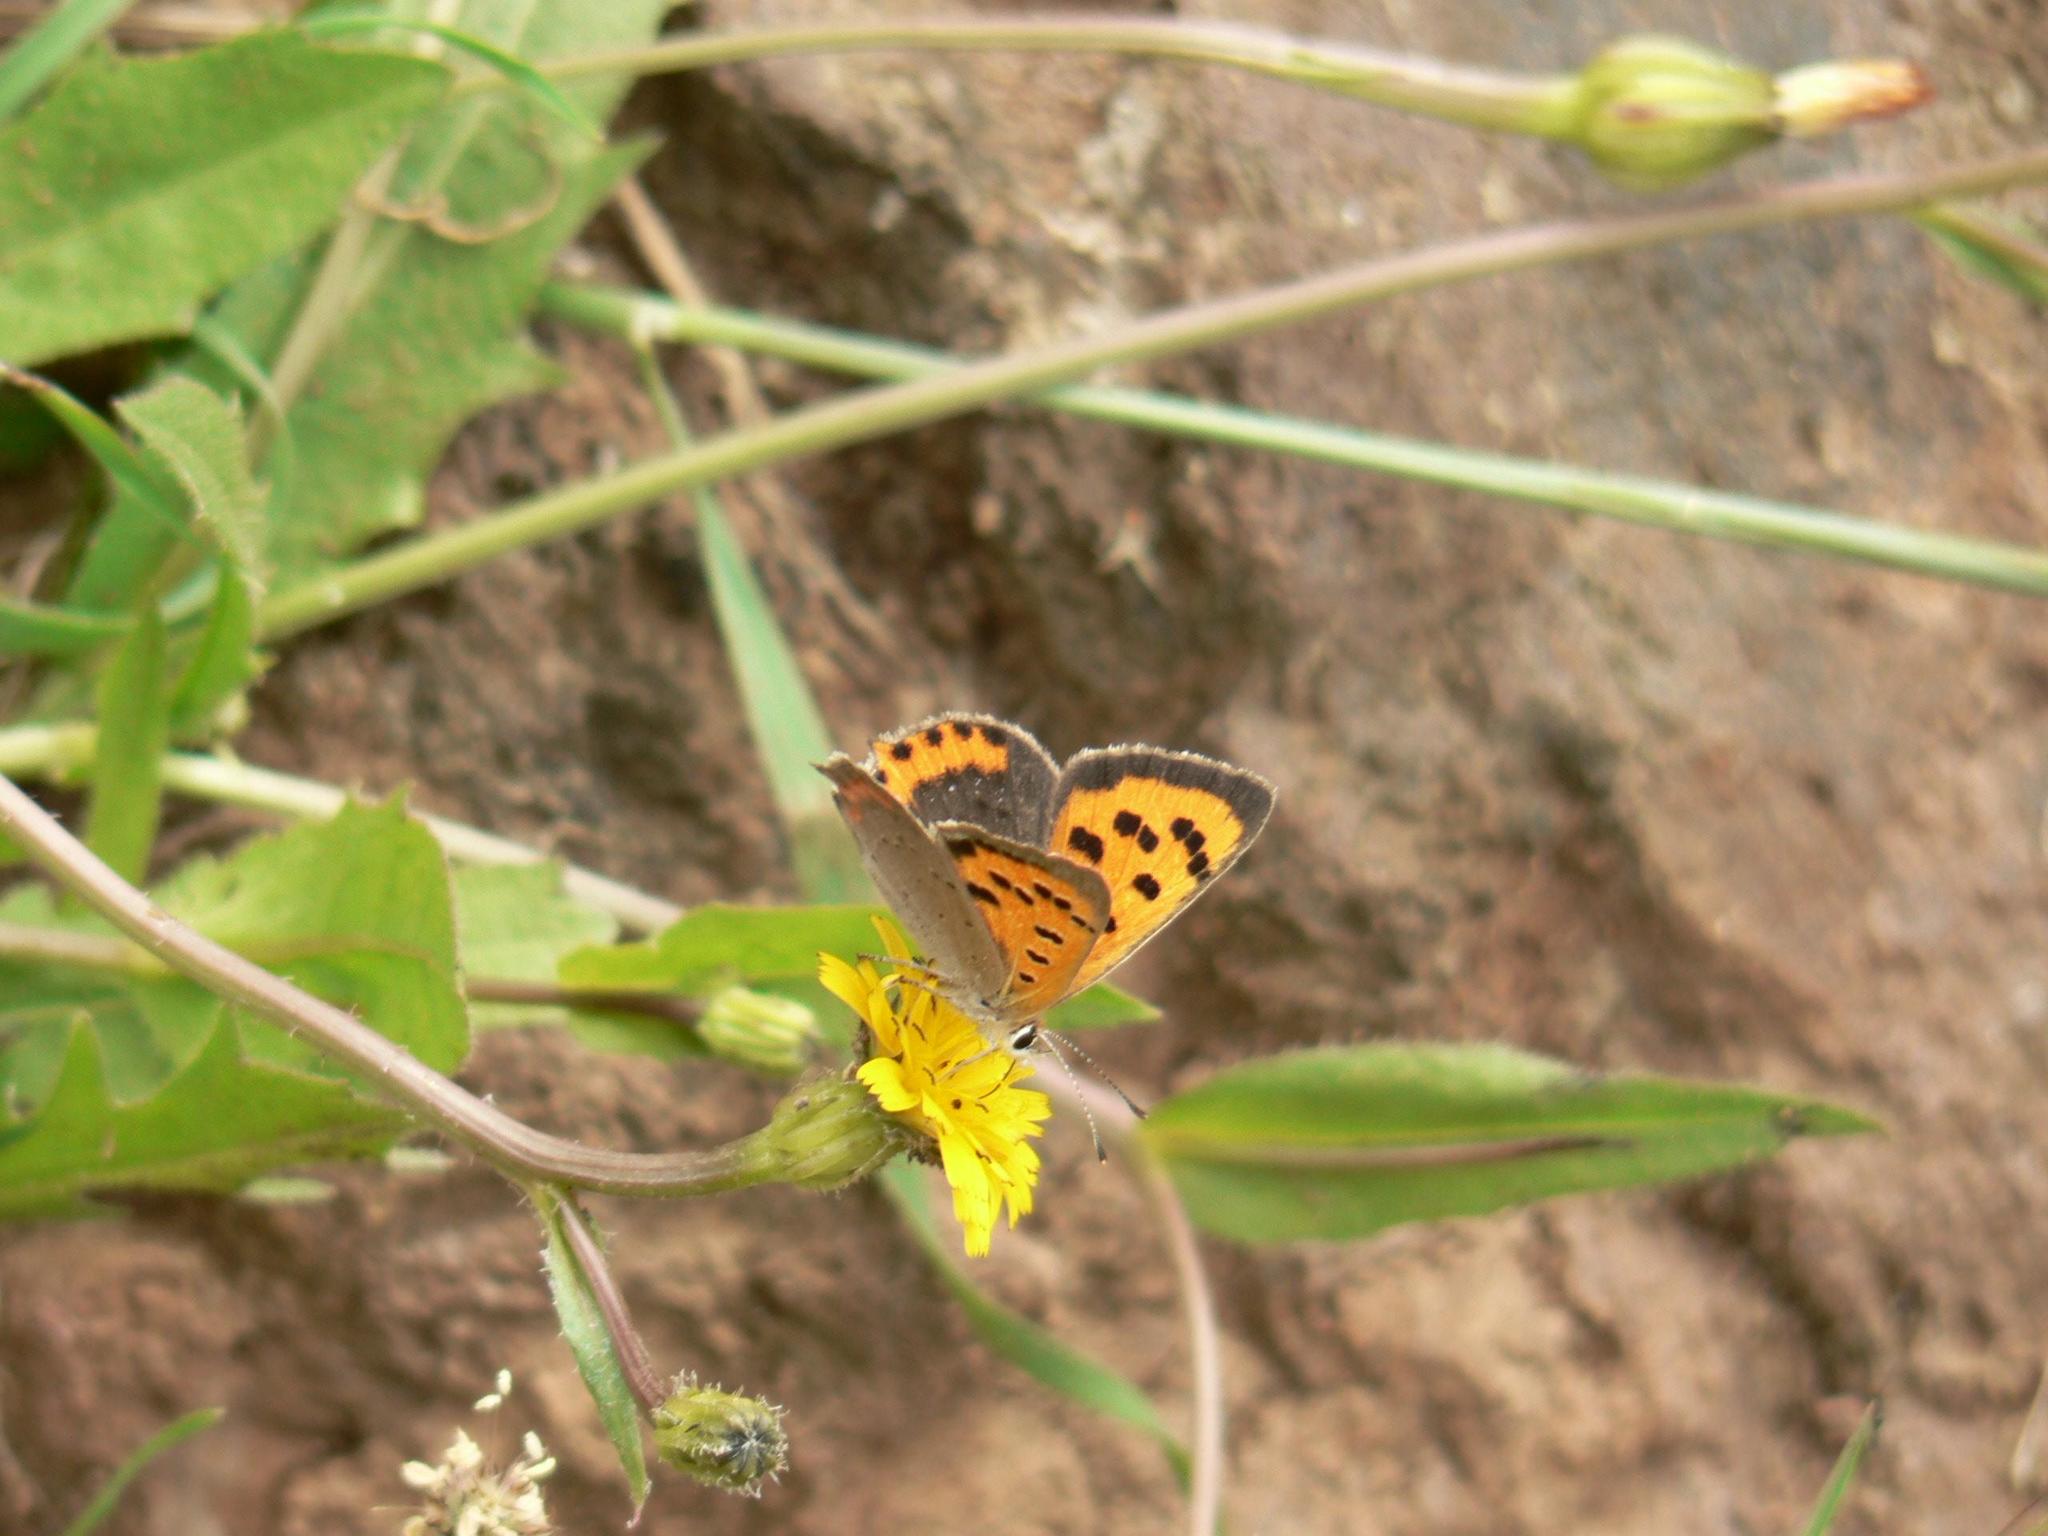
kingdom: Animalia
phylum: Arthropoda
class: Insecta
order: Lepidoptera
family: Lycaenidae
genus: Lycaena
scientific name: Lycaena phlaeas
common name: Small copper
